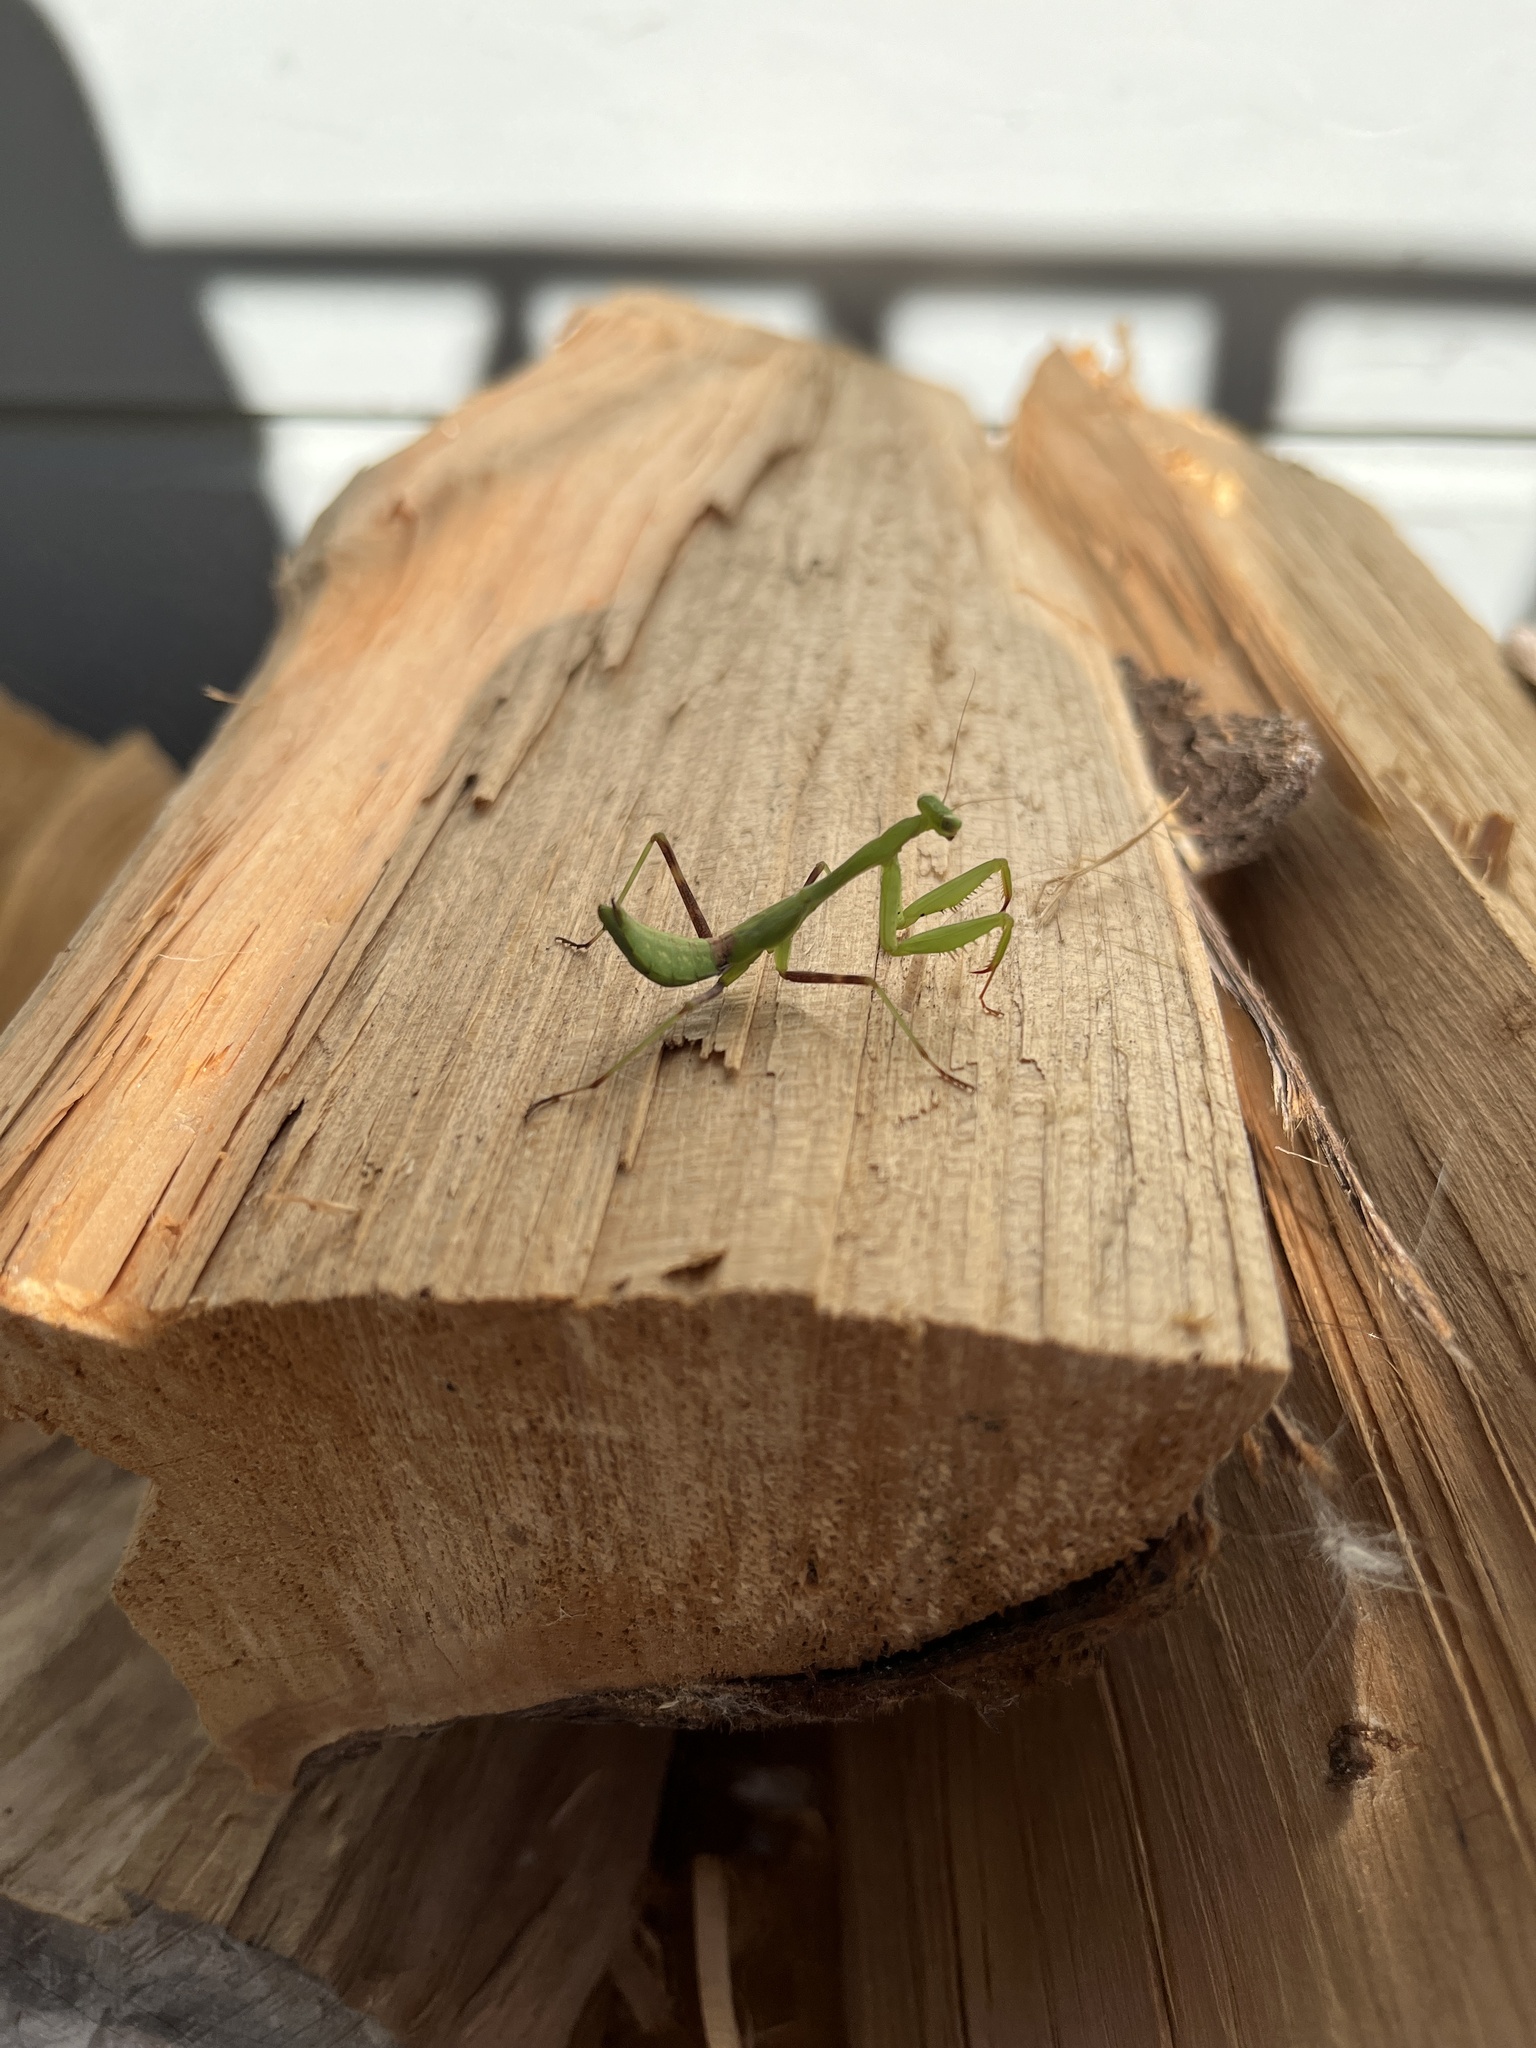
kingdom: Animalia
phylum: Arthropoda
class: Insecta
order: Mantodea
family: Miomantidae
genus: Miomantis
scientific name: Miomantis caffra
